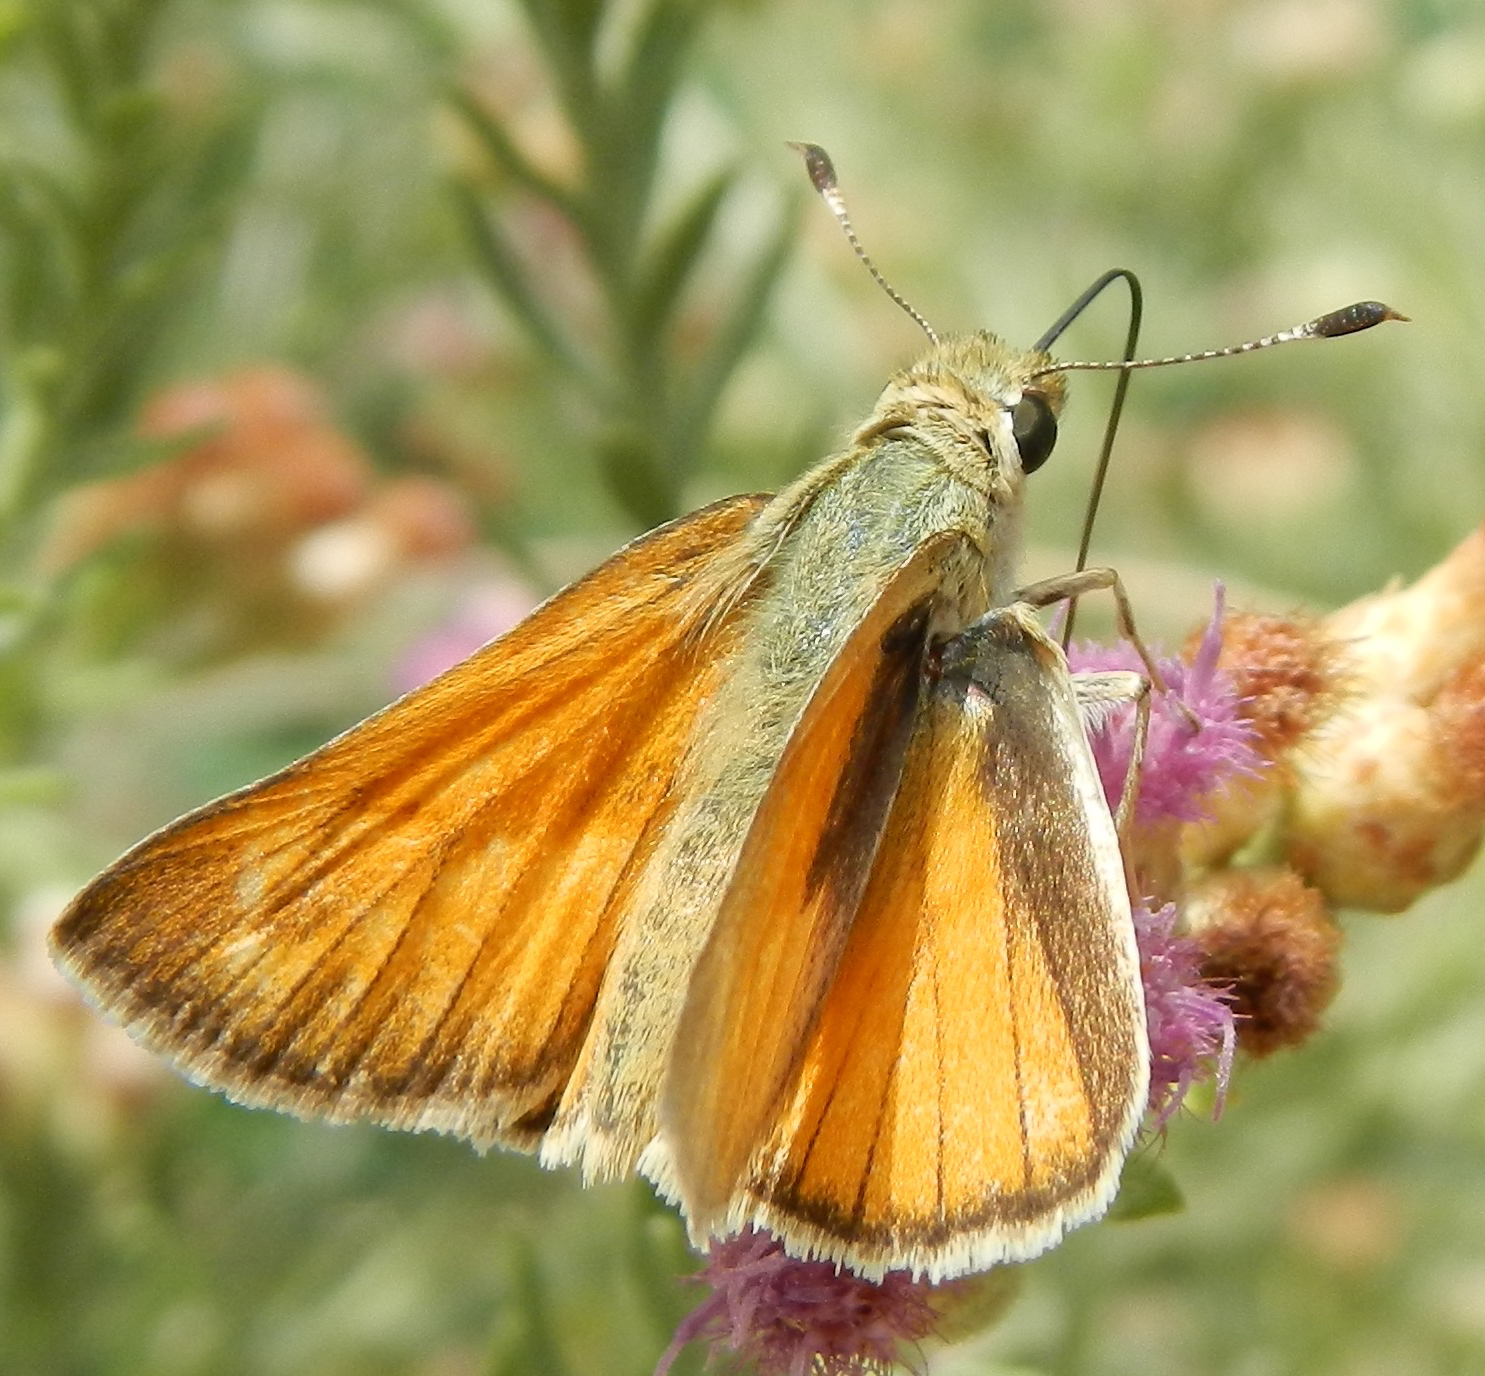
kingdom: Animalia
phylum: Arthropoda
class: Insecta
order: Lepidoptera
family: Hesperiidae
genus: Ochlodes
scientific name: Ochlodes sylvanoides
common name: Woodland skipper
